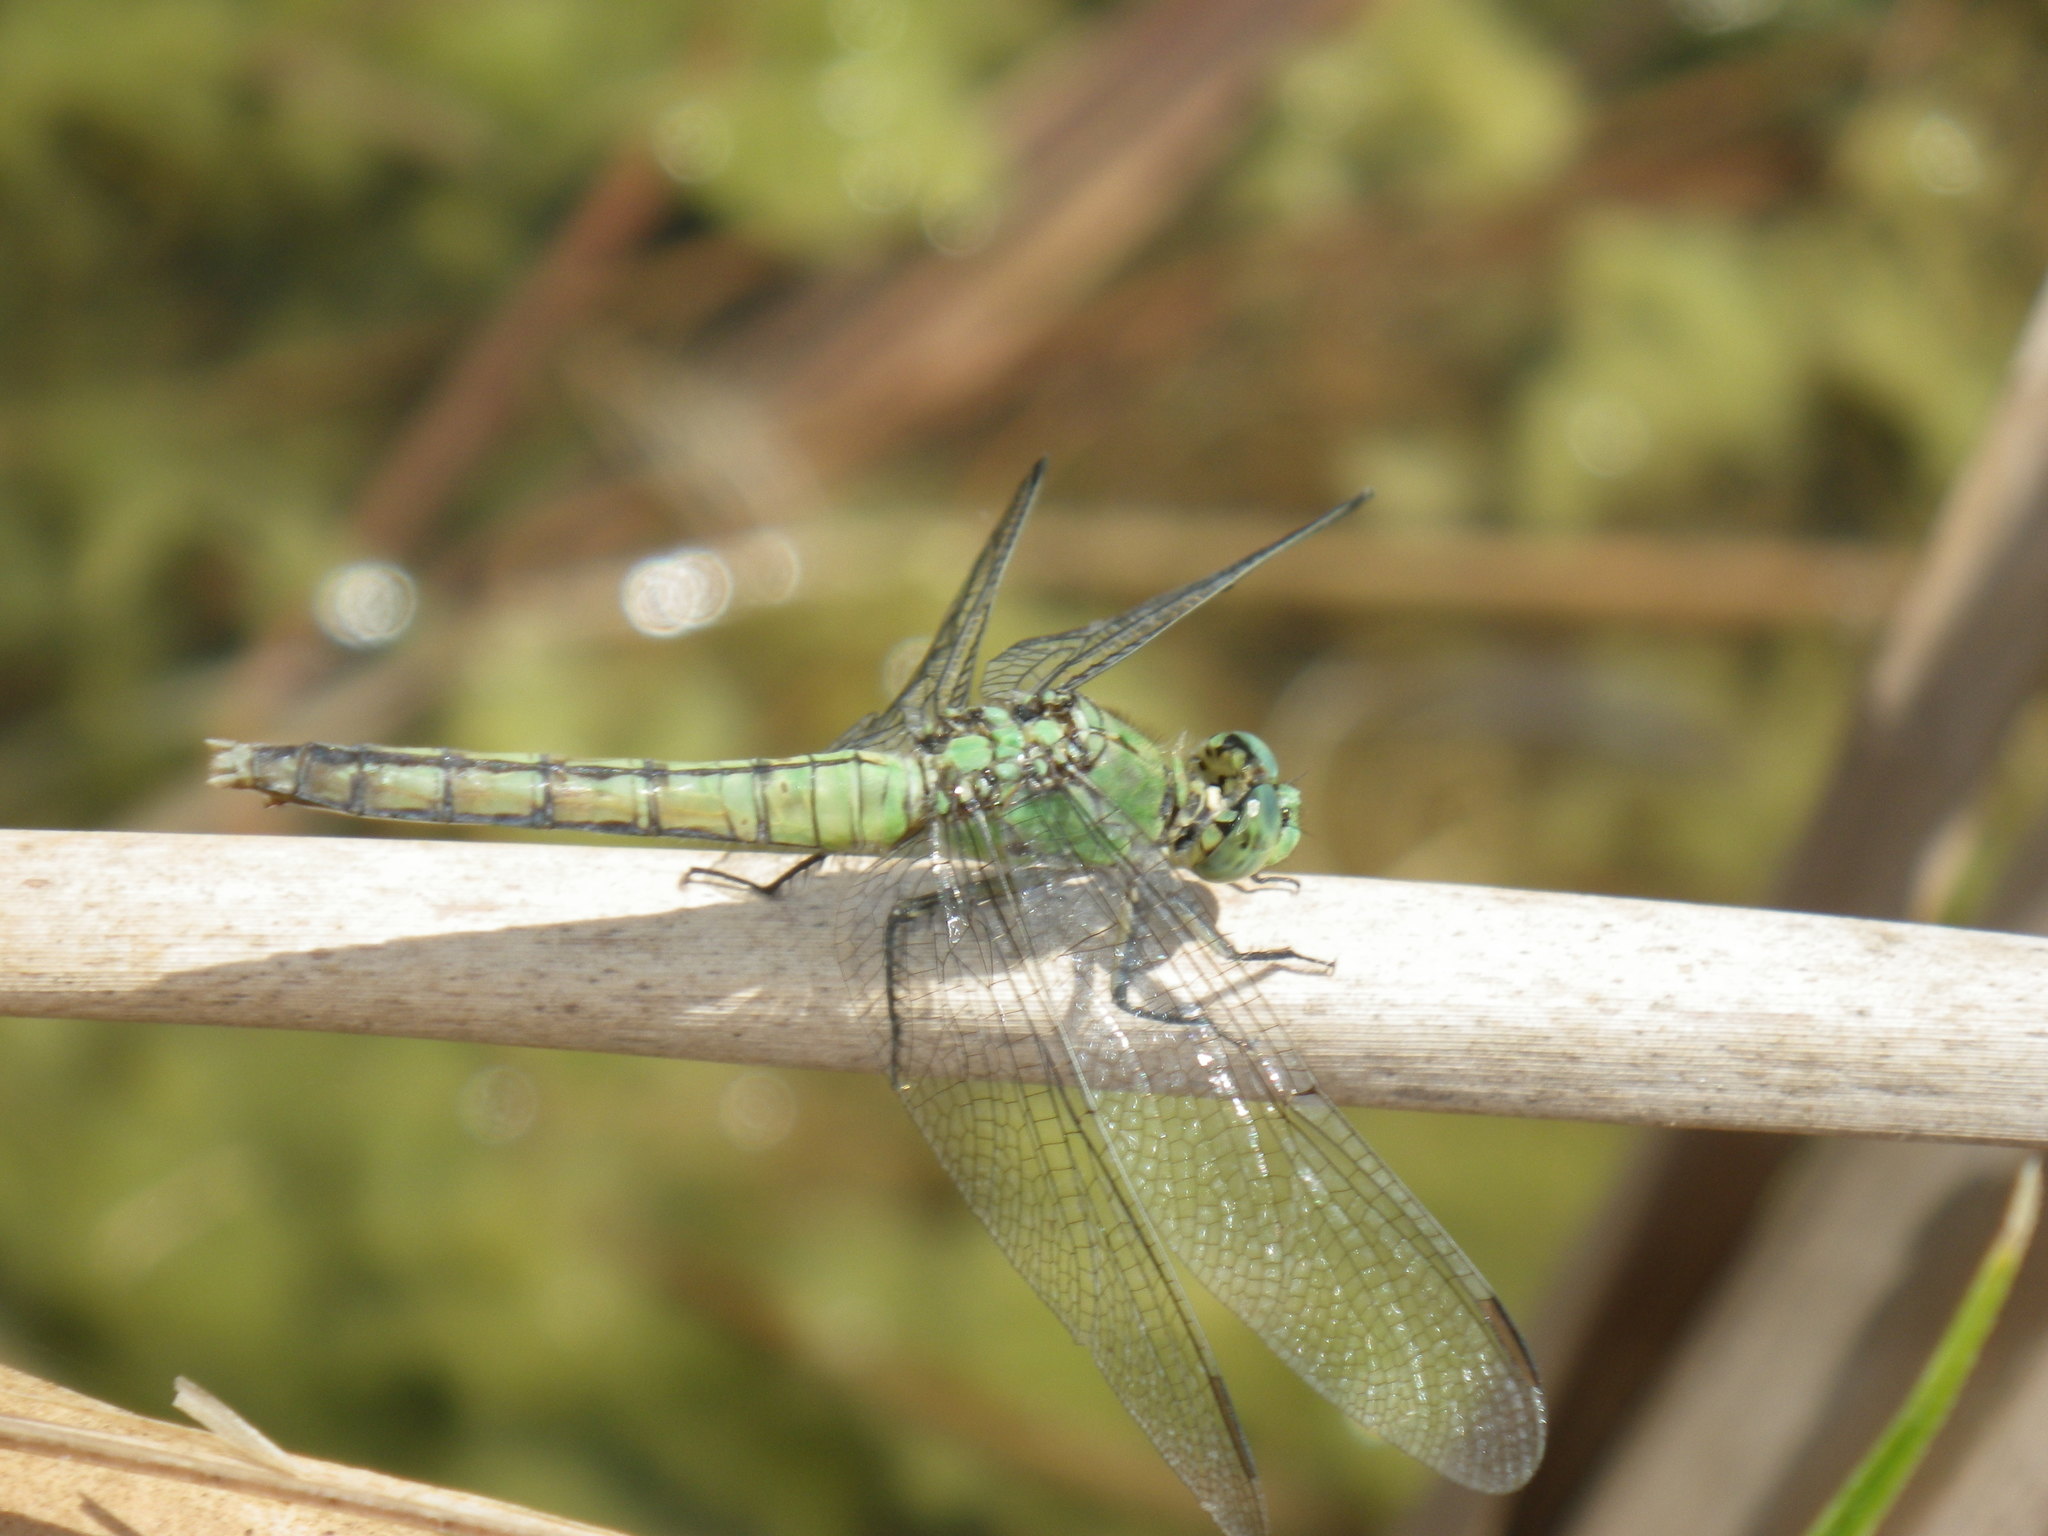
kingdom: Animalia
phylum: Arthropoda
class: Insecta
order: Odonata
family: Libellulidae
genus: Erythemis
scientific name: Erythemis collocata
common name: Western pondhawk
